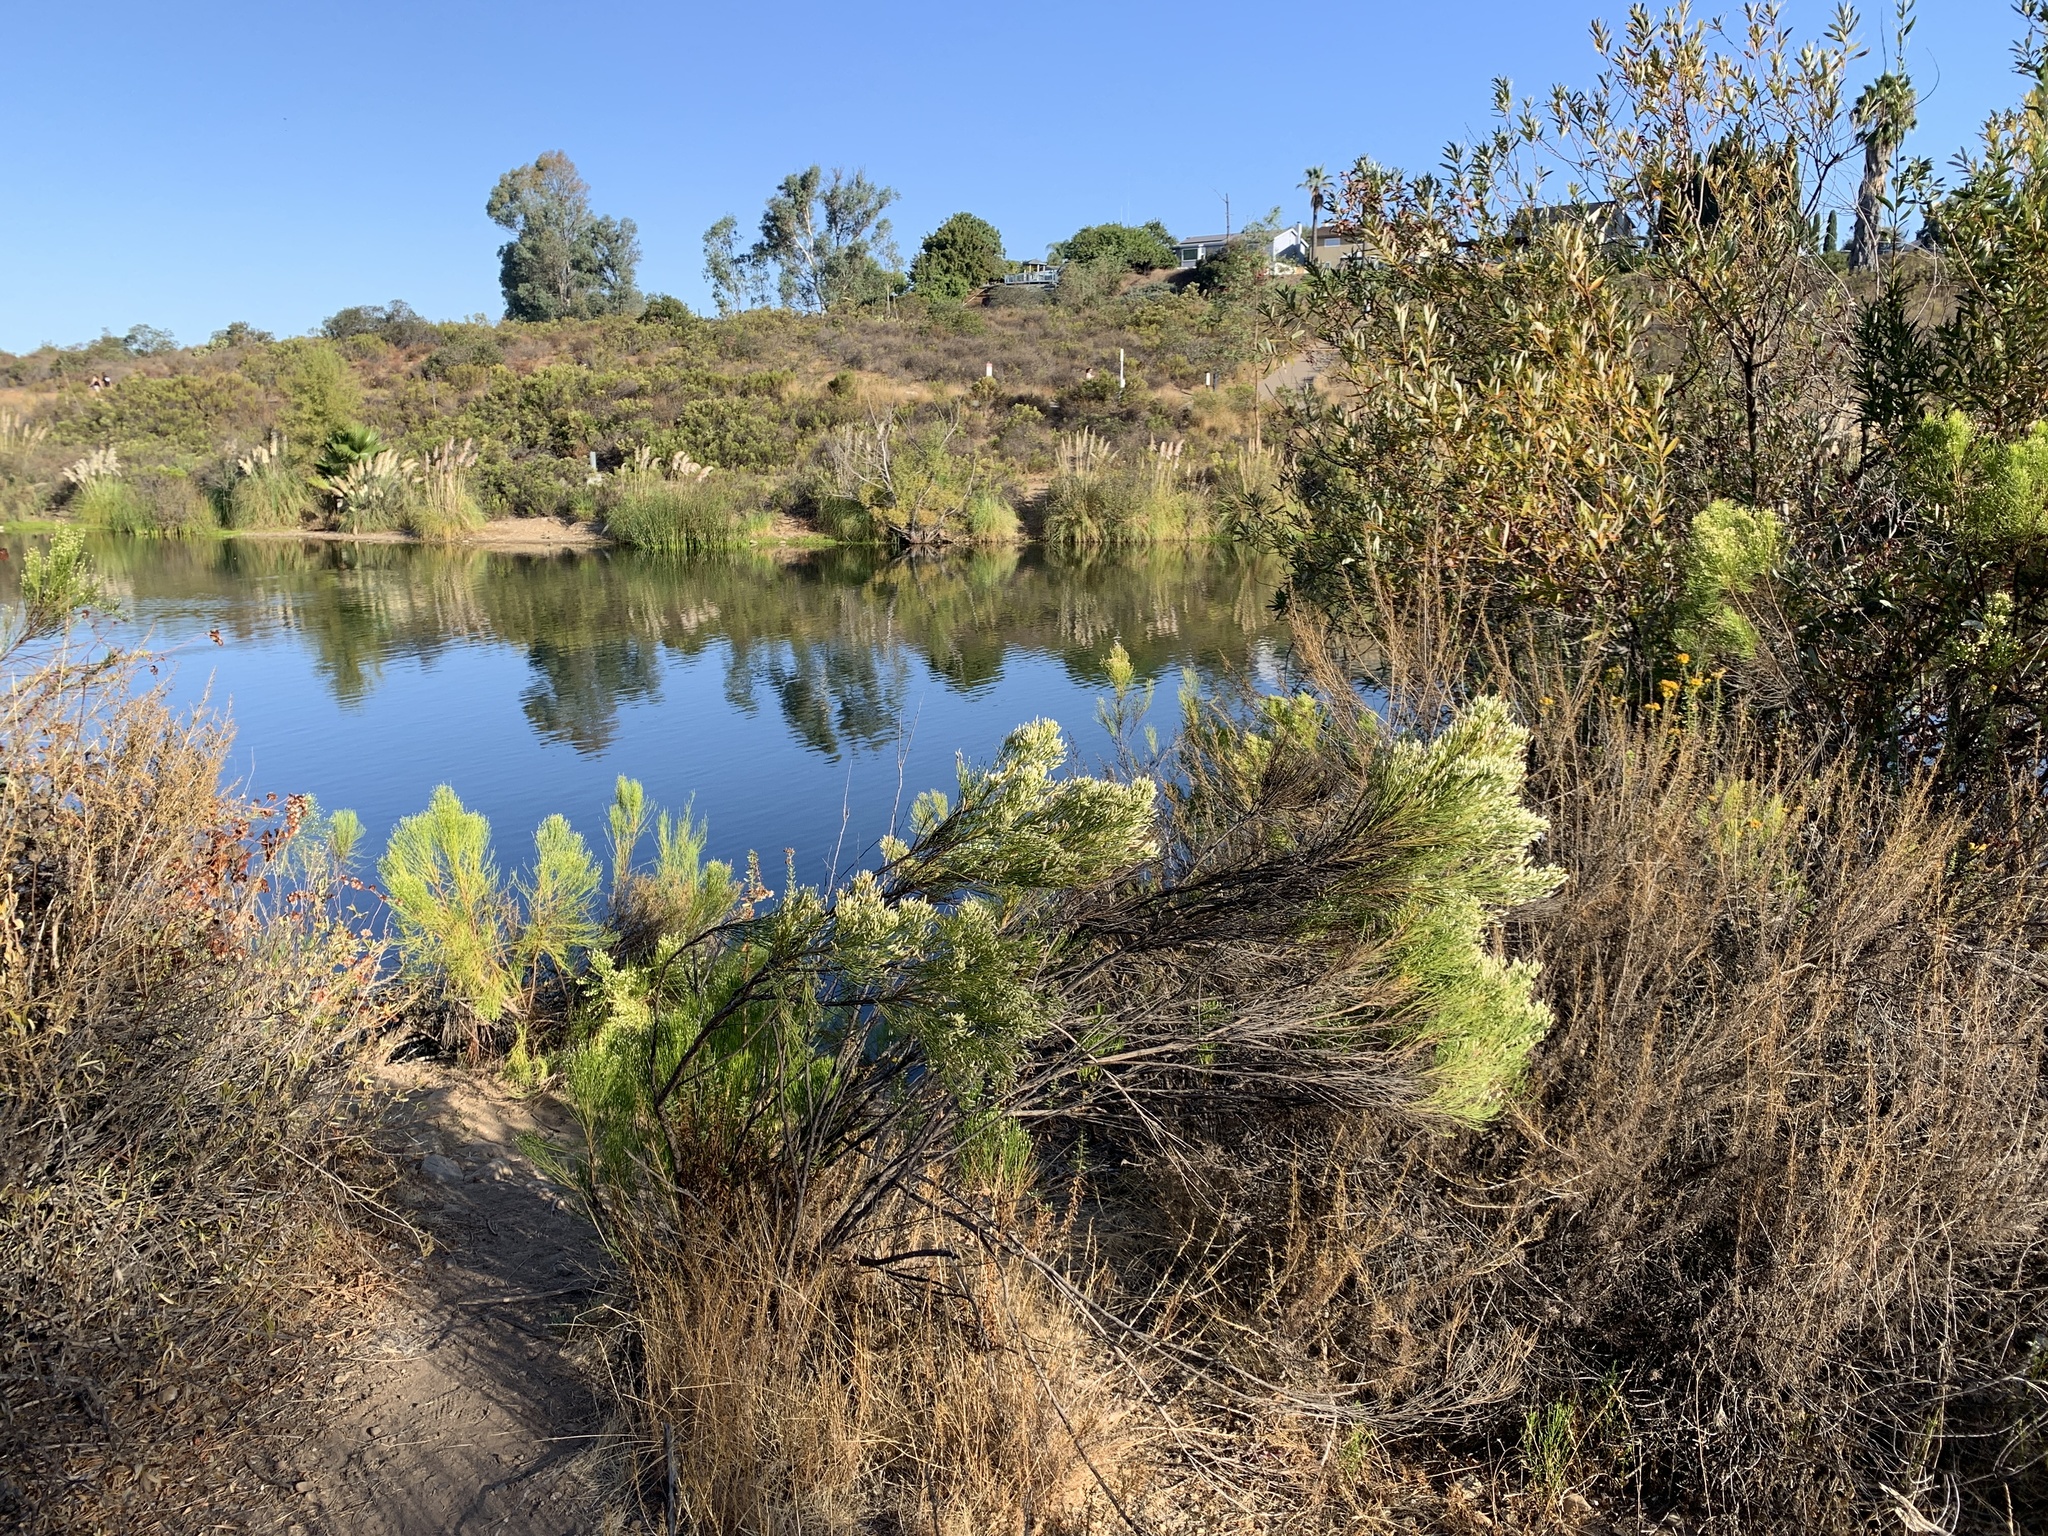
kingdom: Plantae
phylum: Tracheophyta
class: Magnoliopsida
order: Asterales
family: Asteraceae
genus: Baccharis
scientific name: Baccharis sarothroides
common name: Desert-broom
